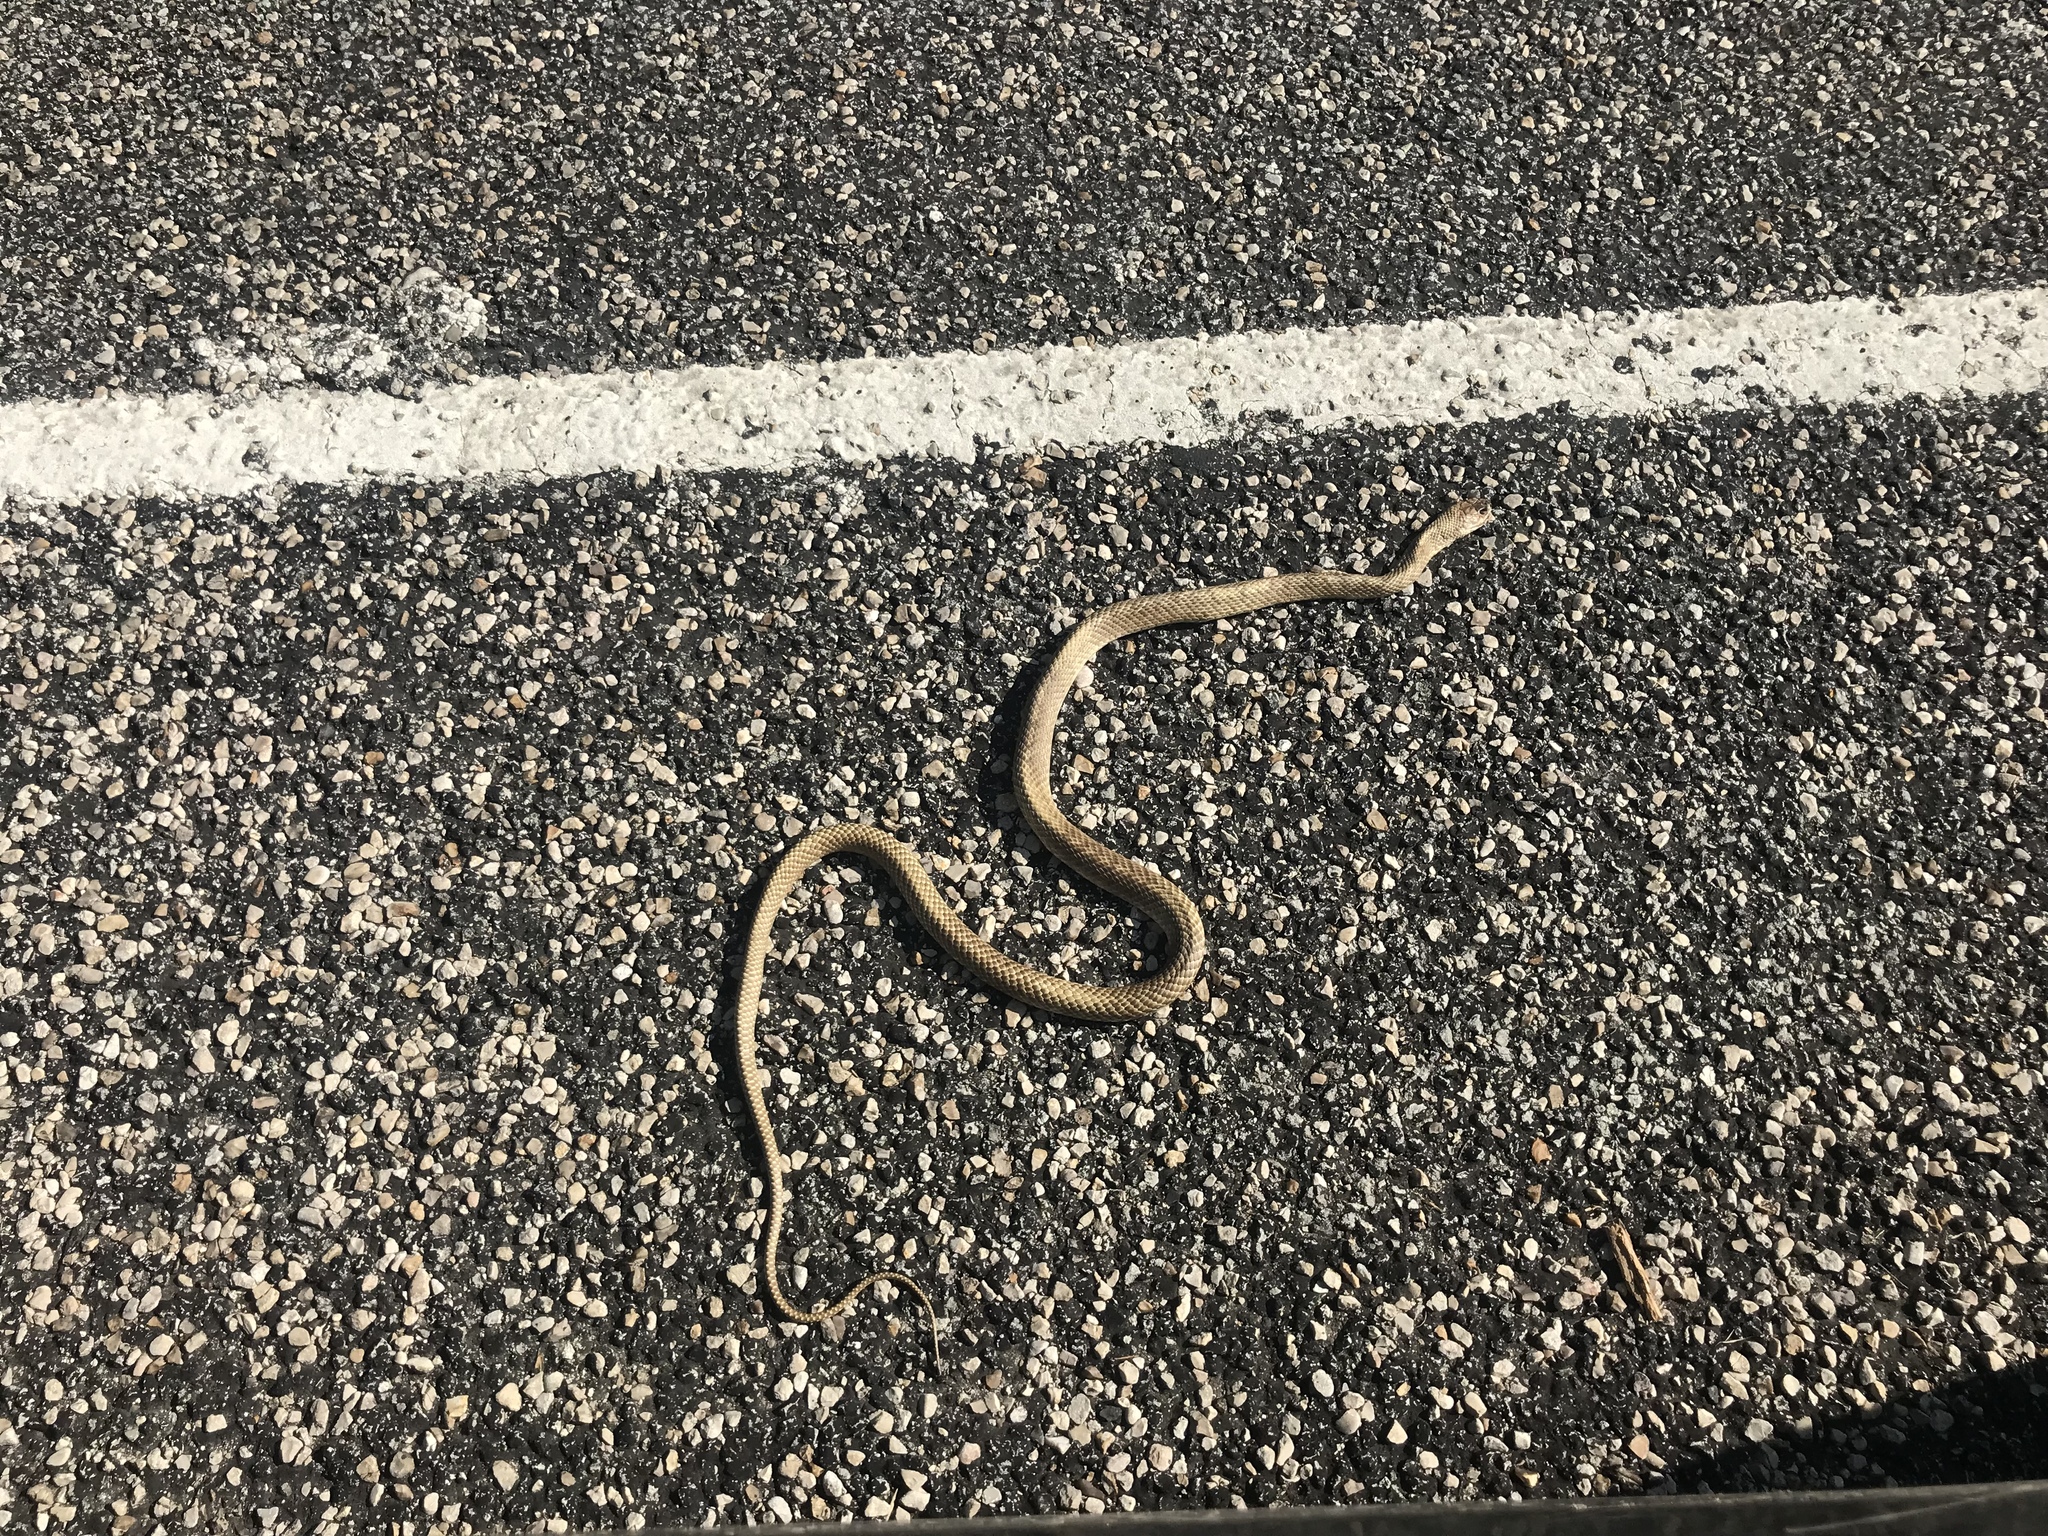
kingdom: Animalia
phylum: Chordata
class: Squamata
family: Colubridae
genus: Masticophis
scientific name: Masticophis flagellum
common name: Coachwhip
